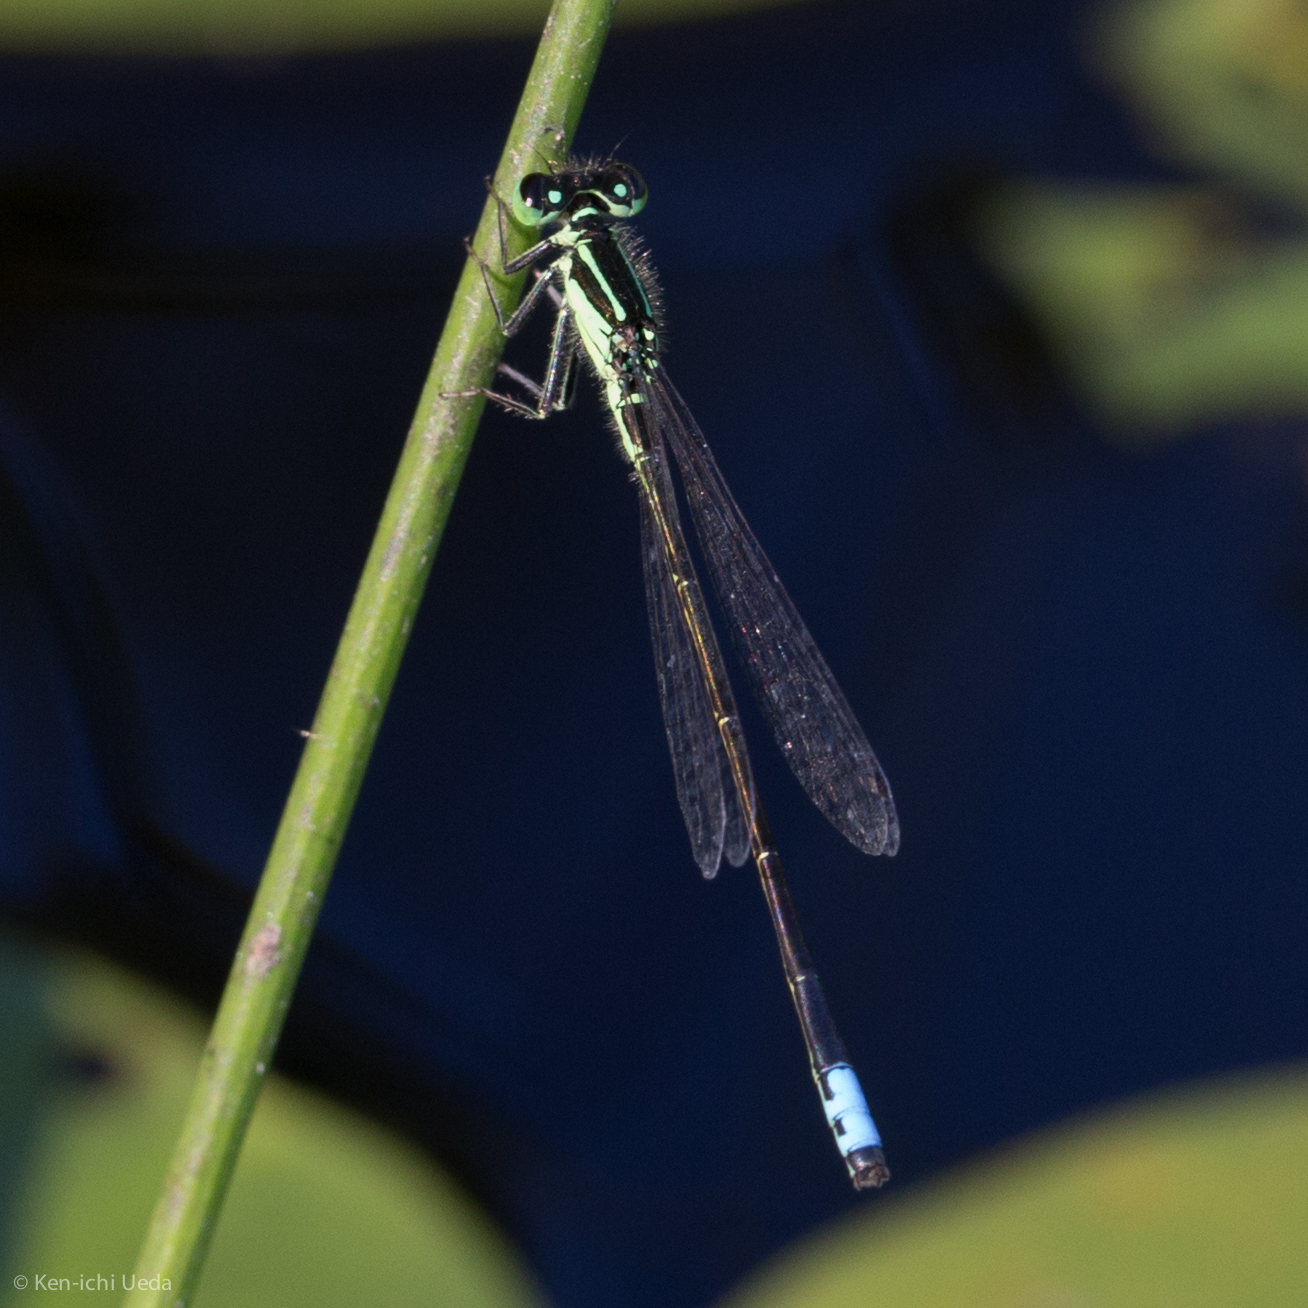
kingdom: Animalia
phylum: Arthropoda
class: Insecta
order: Odonata
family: Coenagrionidae
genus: Ischnura
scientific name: Ischnura verticalis
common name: Eastern forktail
